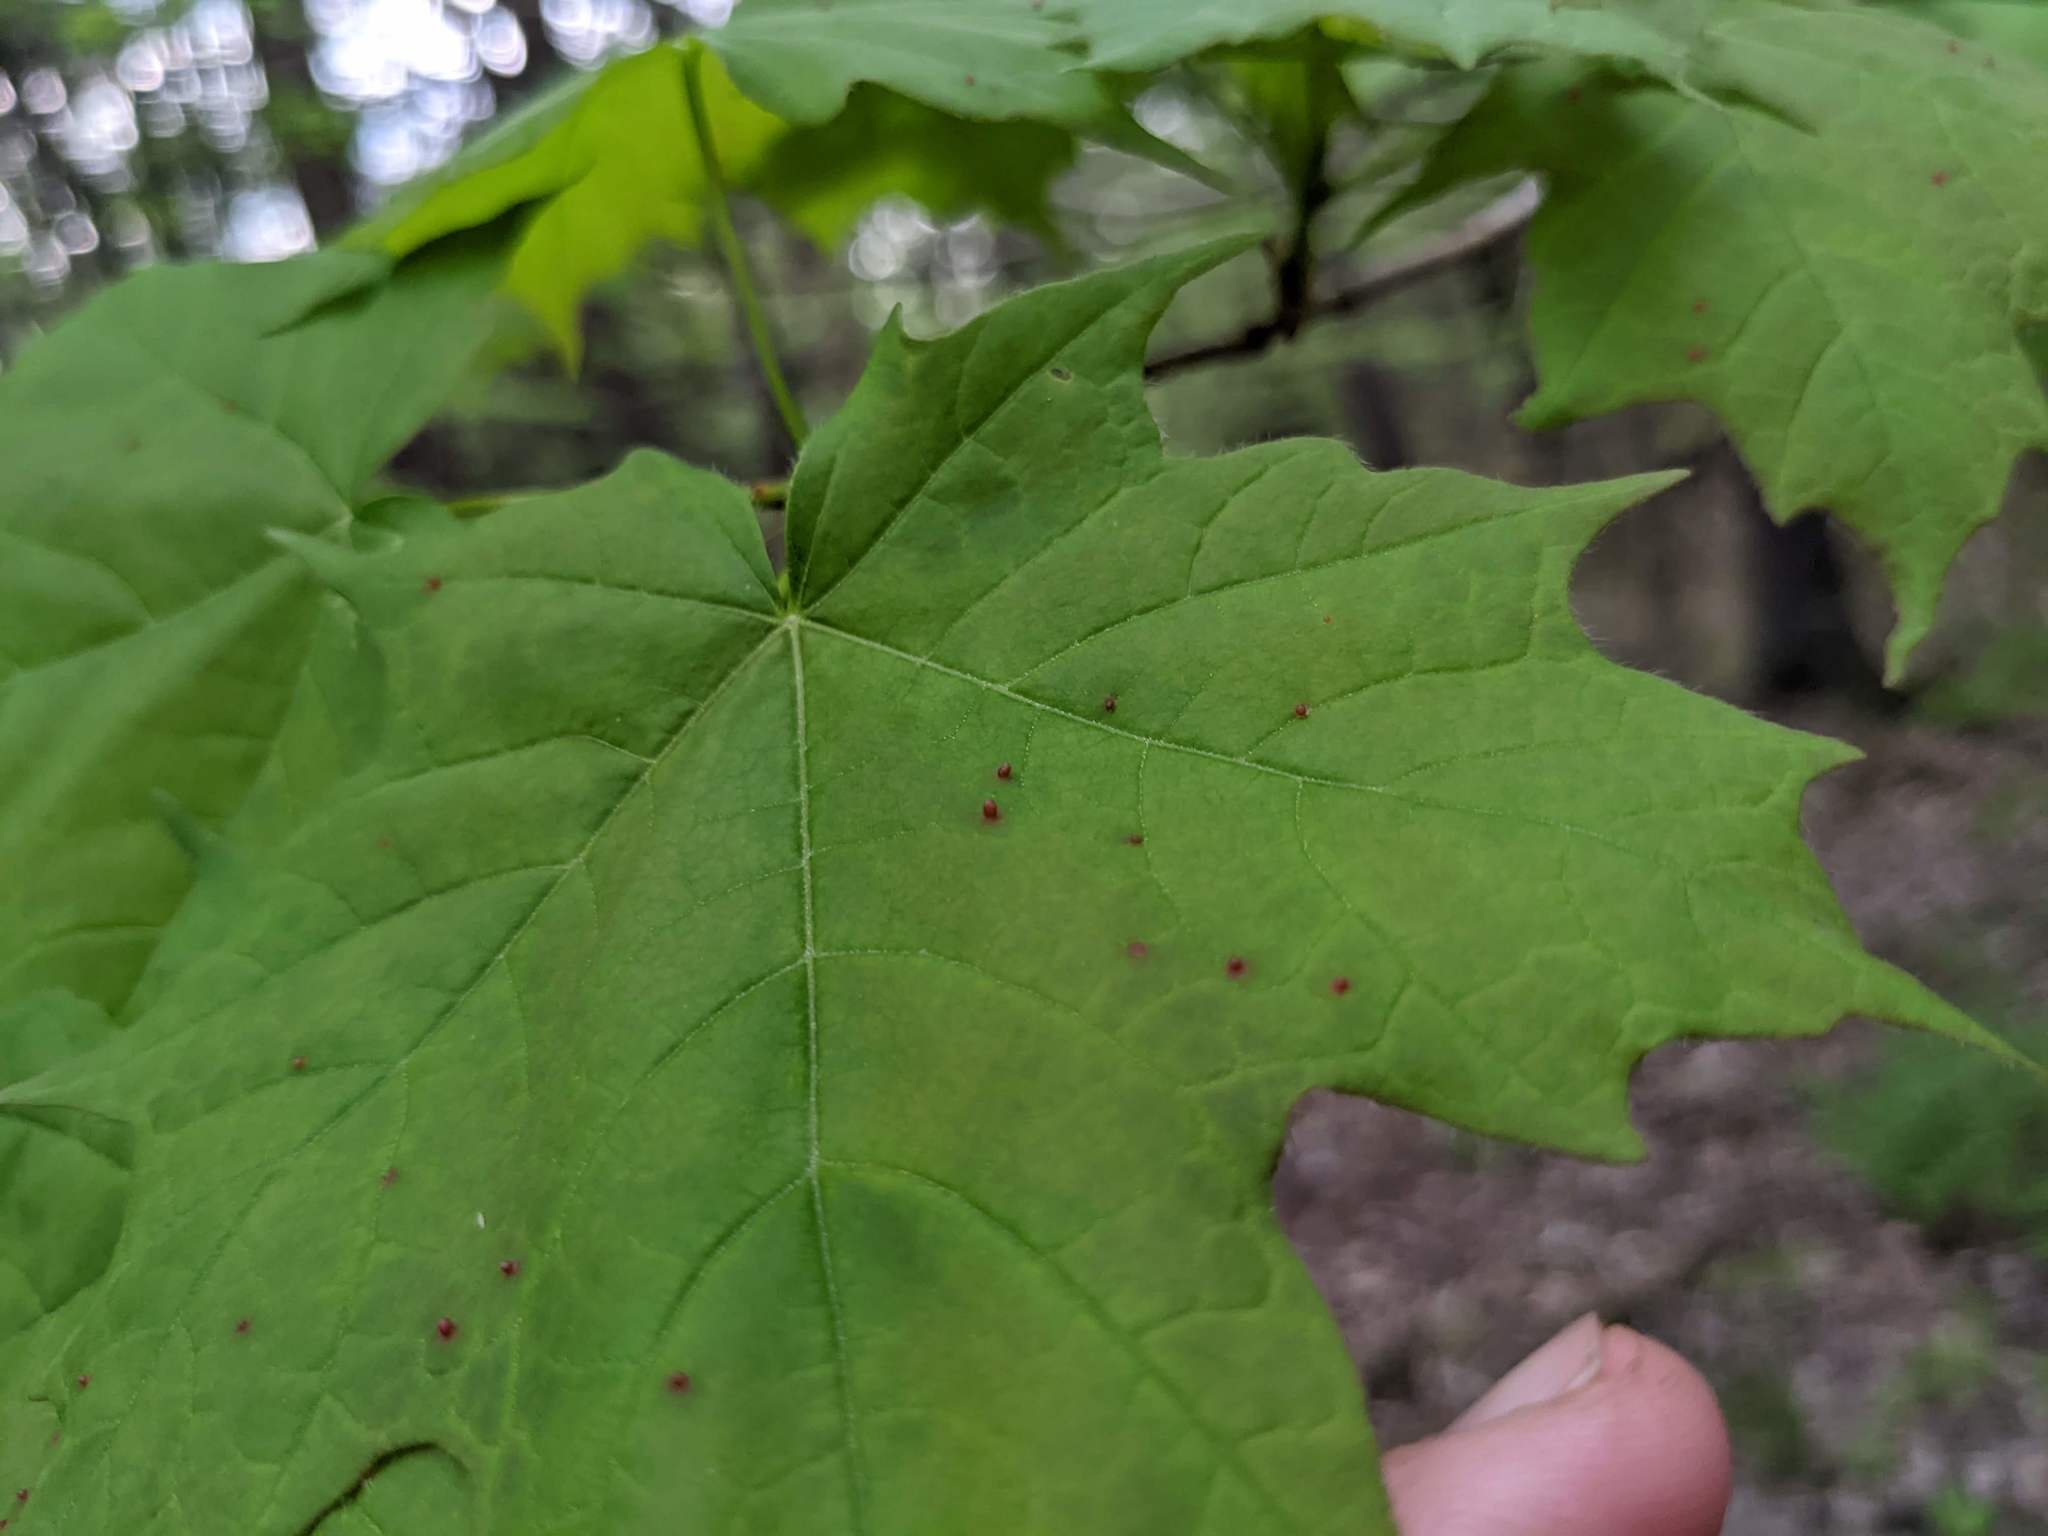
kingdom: Animalia
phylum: Arthropoda
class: Arachnida
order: Trombidiformes
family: Eriophyidae
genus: Vasates
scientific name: Vasates aceriscrumena
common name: Maple spindle gall mite
